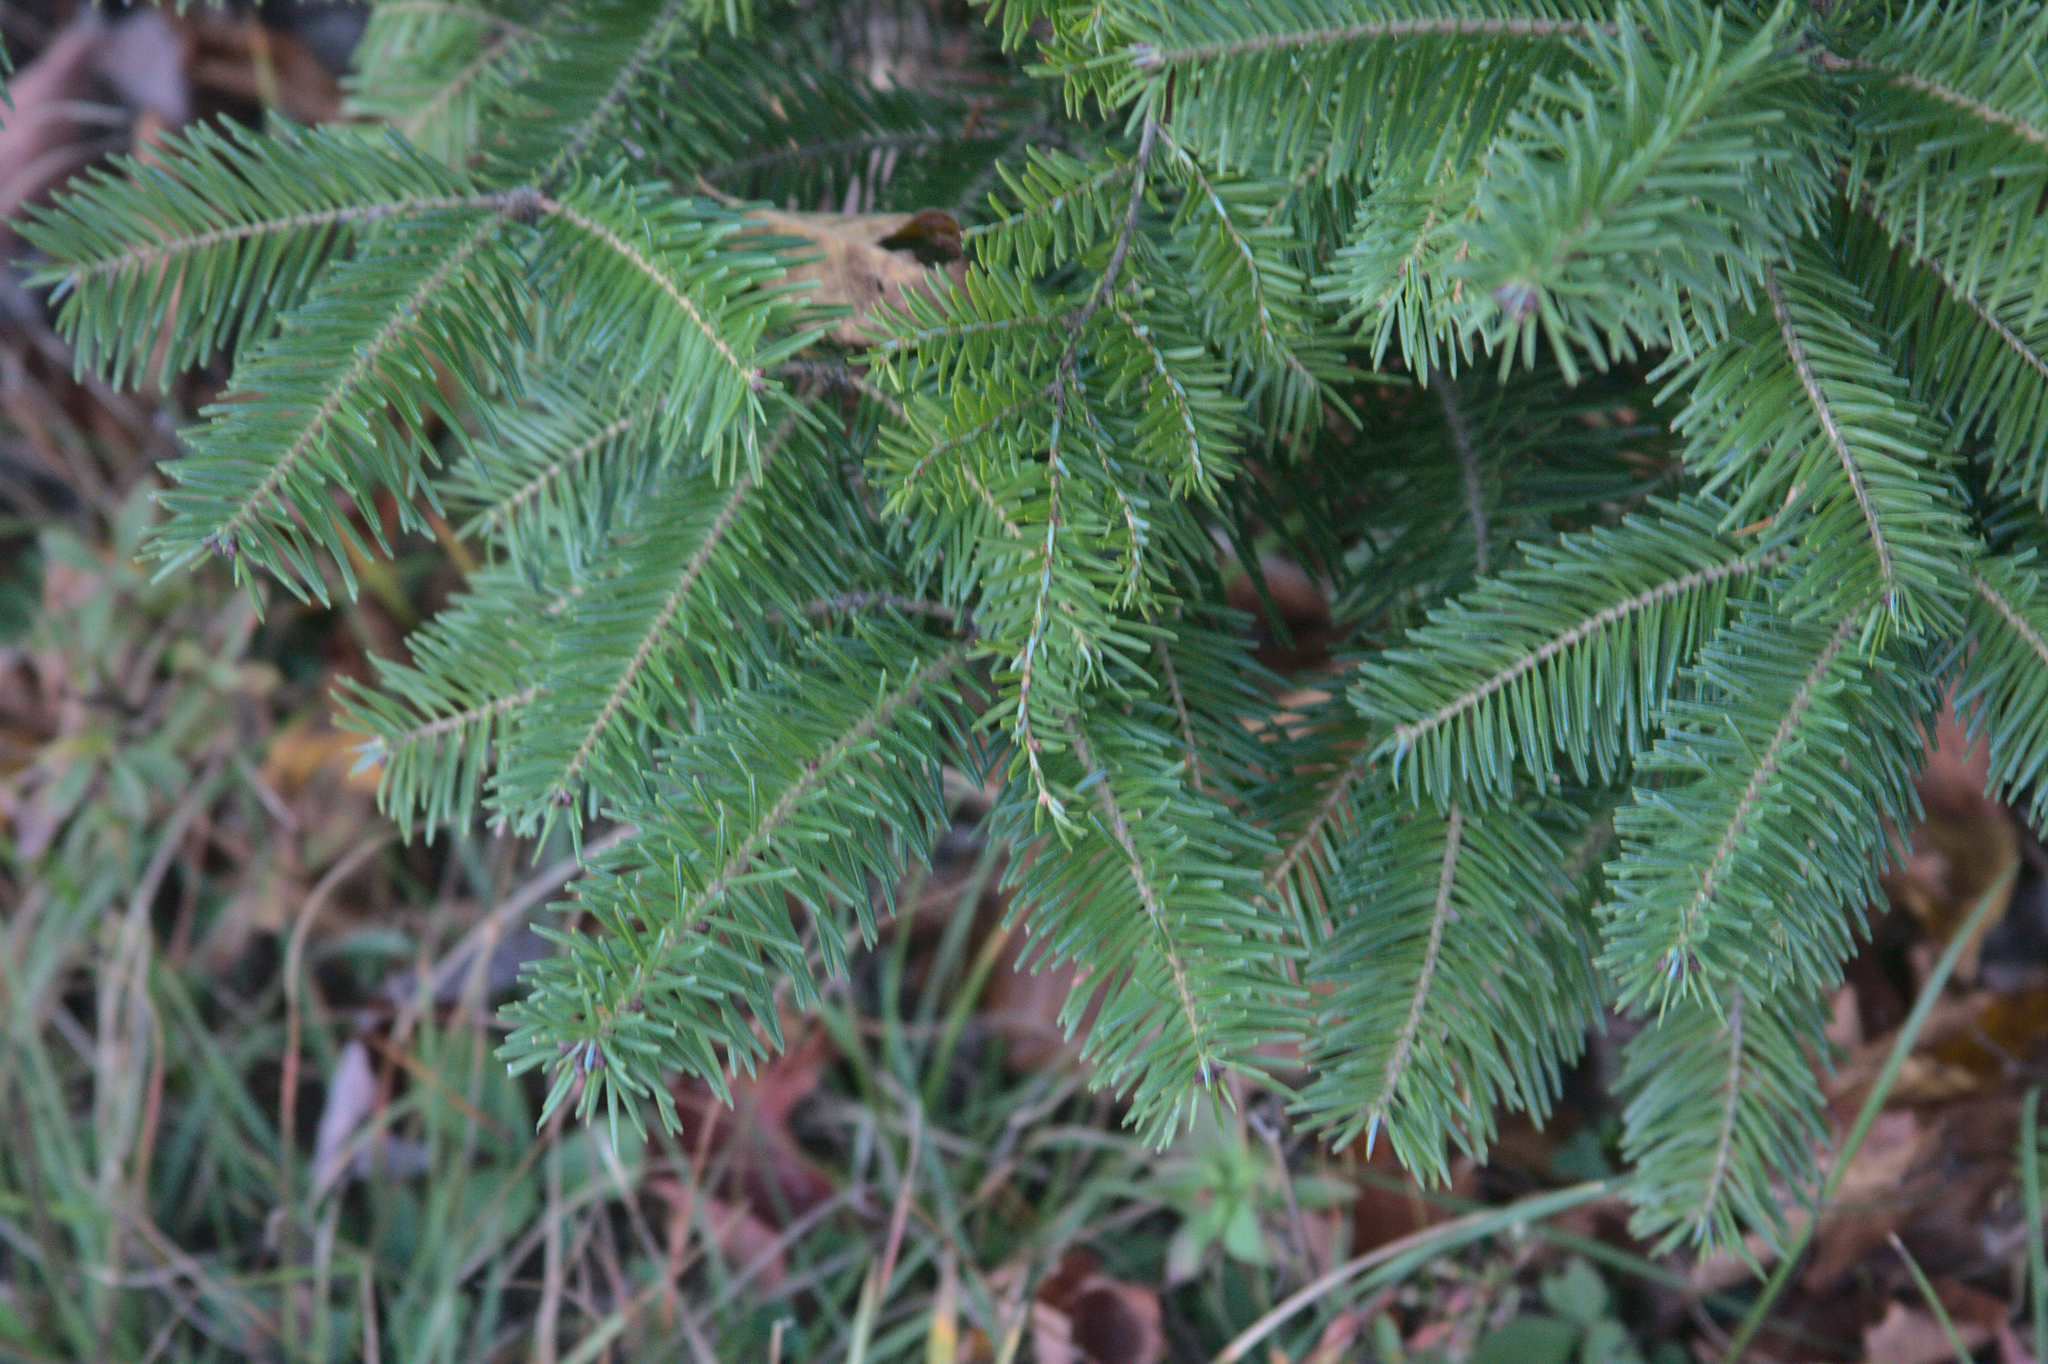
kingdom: Plantae
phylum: Tracheophyta
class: Pinopsida
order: Pinales
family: Pinaceae
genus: Abies
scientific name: Abies balsamea
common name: Balsam fir
